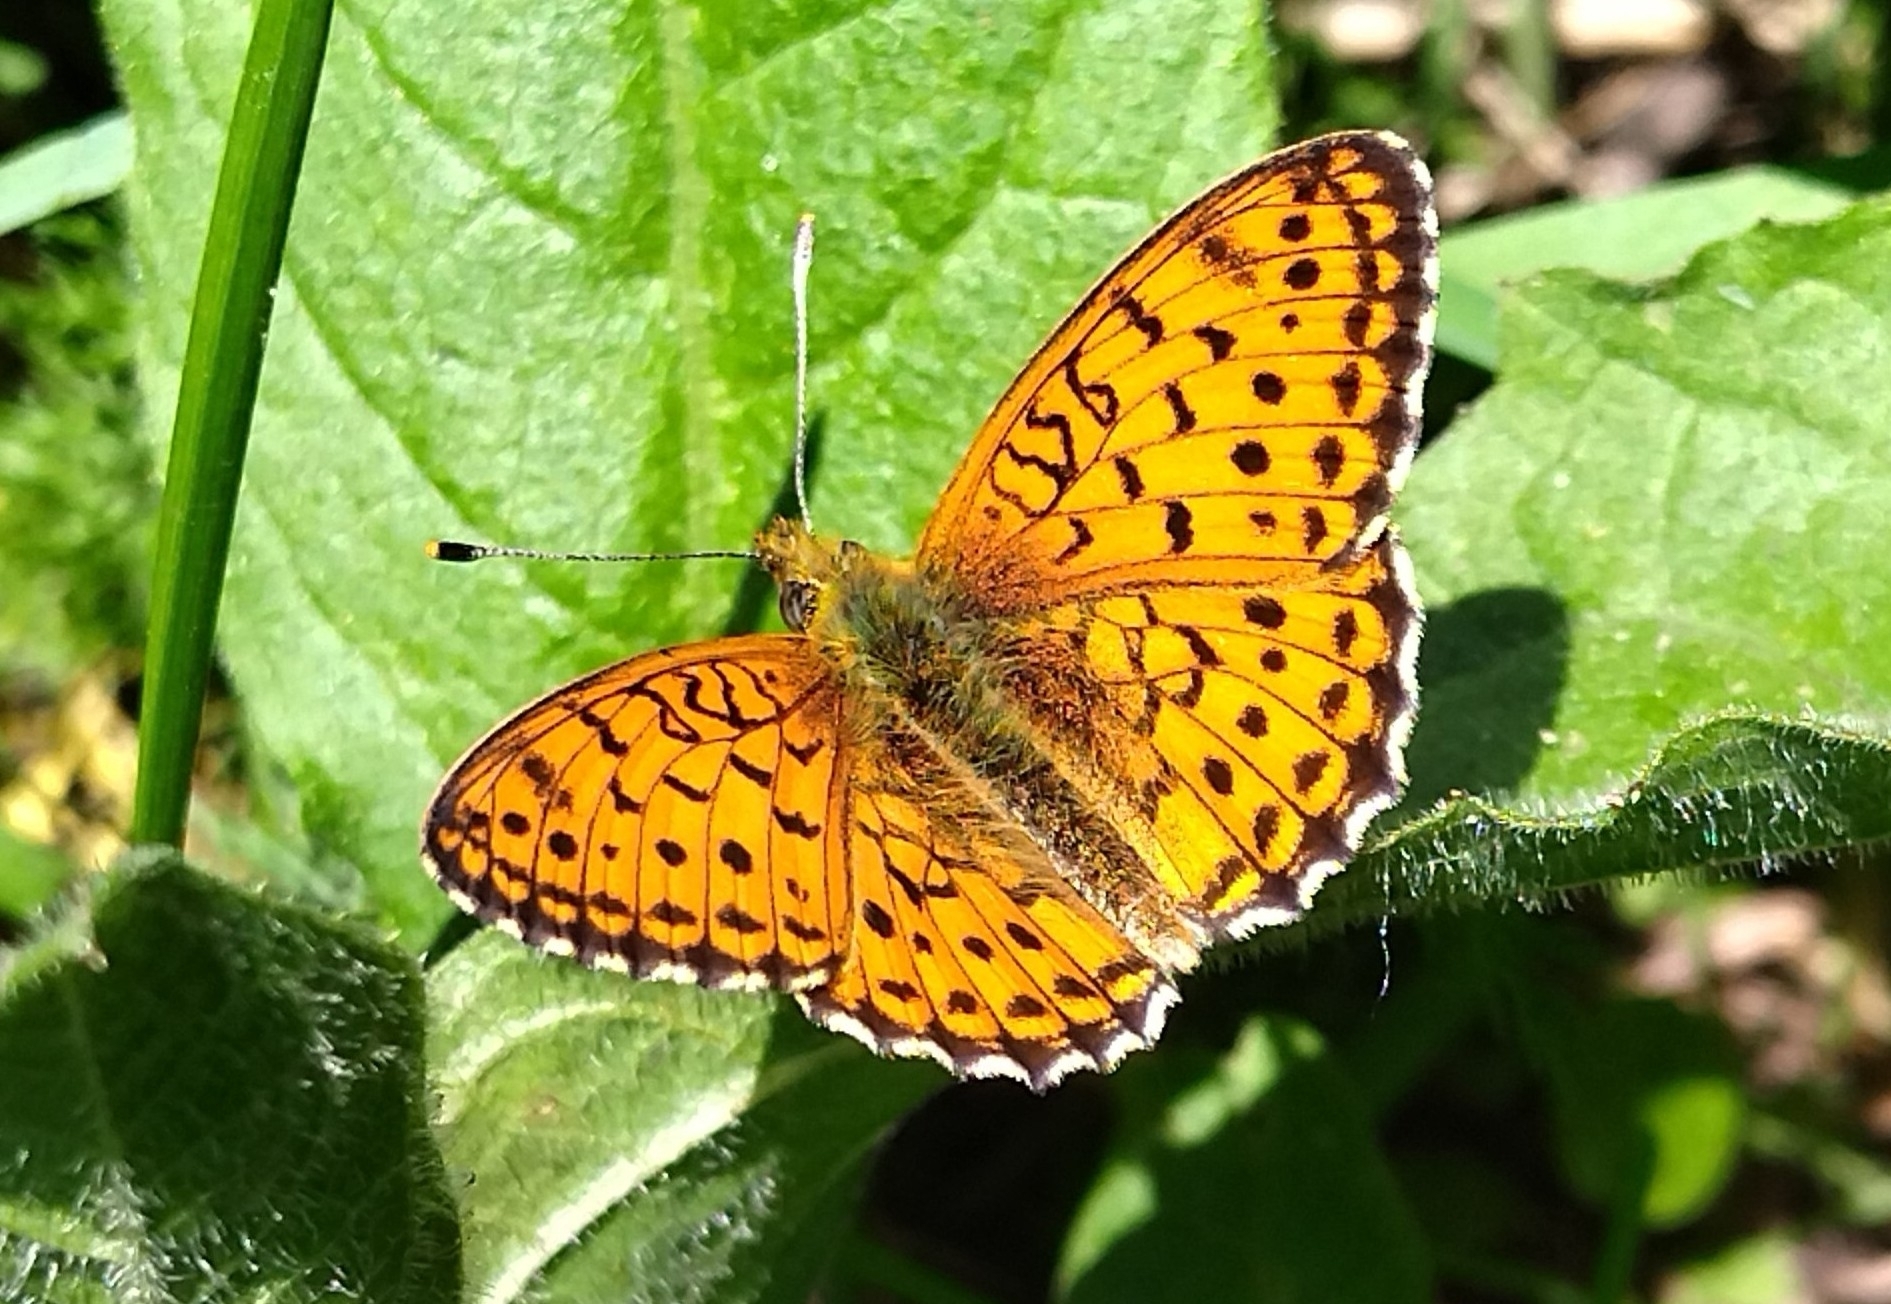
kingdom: Animalia
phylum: Arthropoda
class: Insecta
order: Lepidoptera
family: Nymphalidae
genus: Brenthis
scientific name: Brenthis ino
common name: Lesser marbled fritillary
